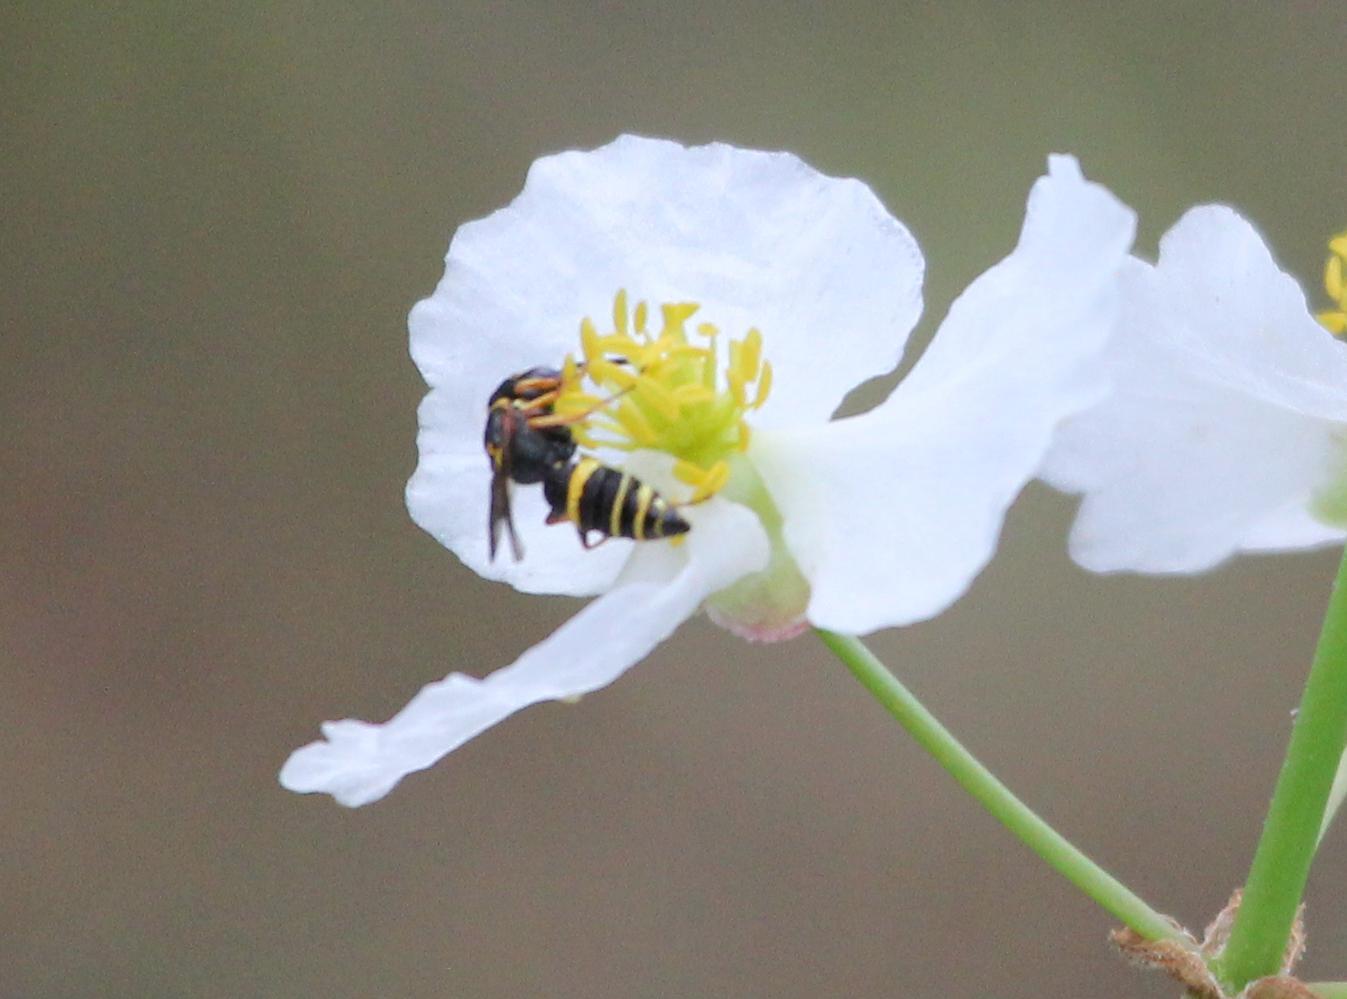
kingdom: Animalia
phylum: Arthropoda
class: Insecta
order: Hymenoptera
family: Crabronidae
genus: Philanthus
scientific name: Philanthus gibbosus
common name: Humped beewolf
